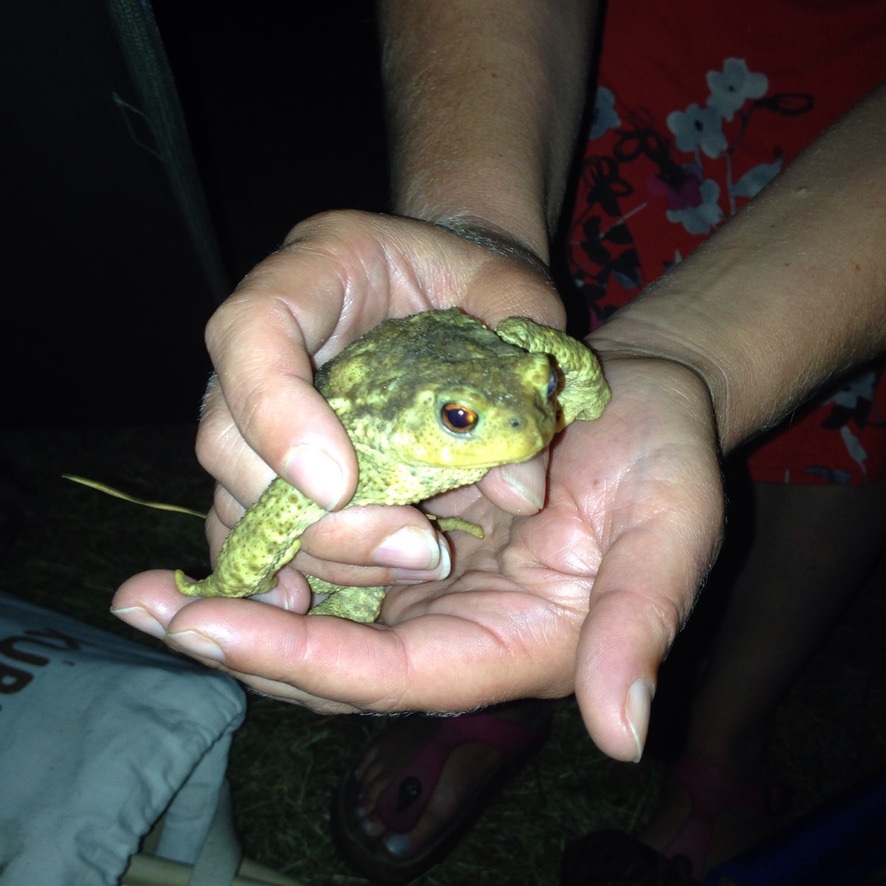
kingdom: Animalia
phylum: Chordata
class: Amphibia
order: Anura
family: Bufonidae
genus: Bufo
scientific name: Bufo spinosus
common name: Western common toad
